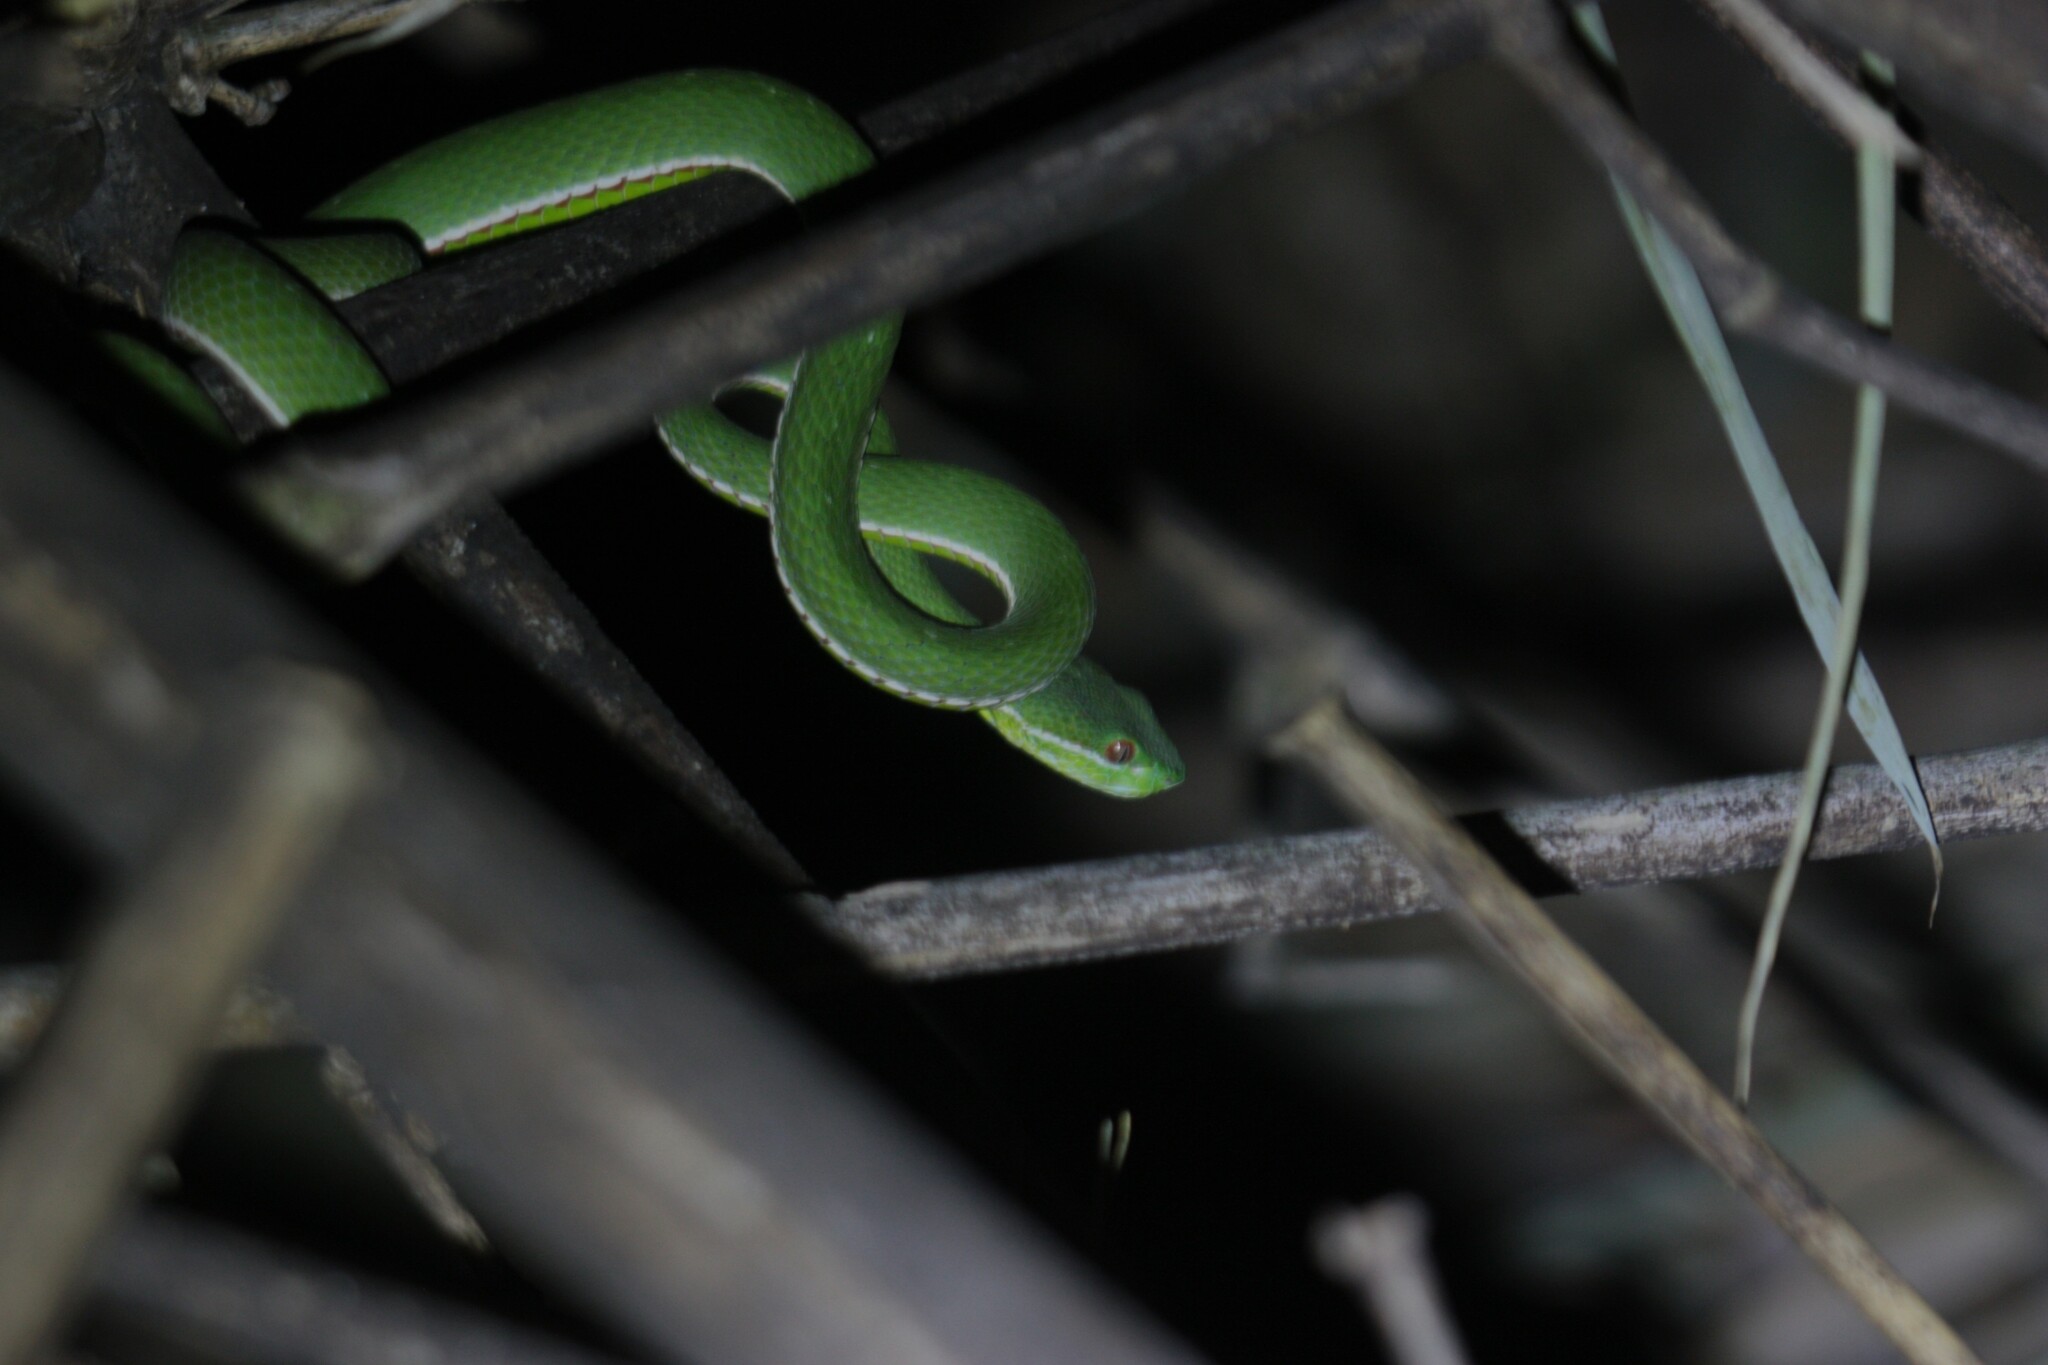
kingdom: Animalia
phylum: Chordata
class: Squamata
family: Viperidae
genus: Trimeresurus
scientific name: Trimeresurus stejnegeri
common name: Chen’s bamboo pit viper
